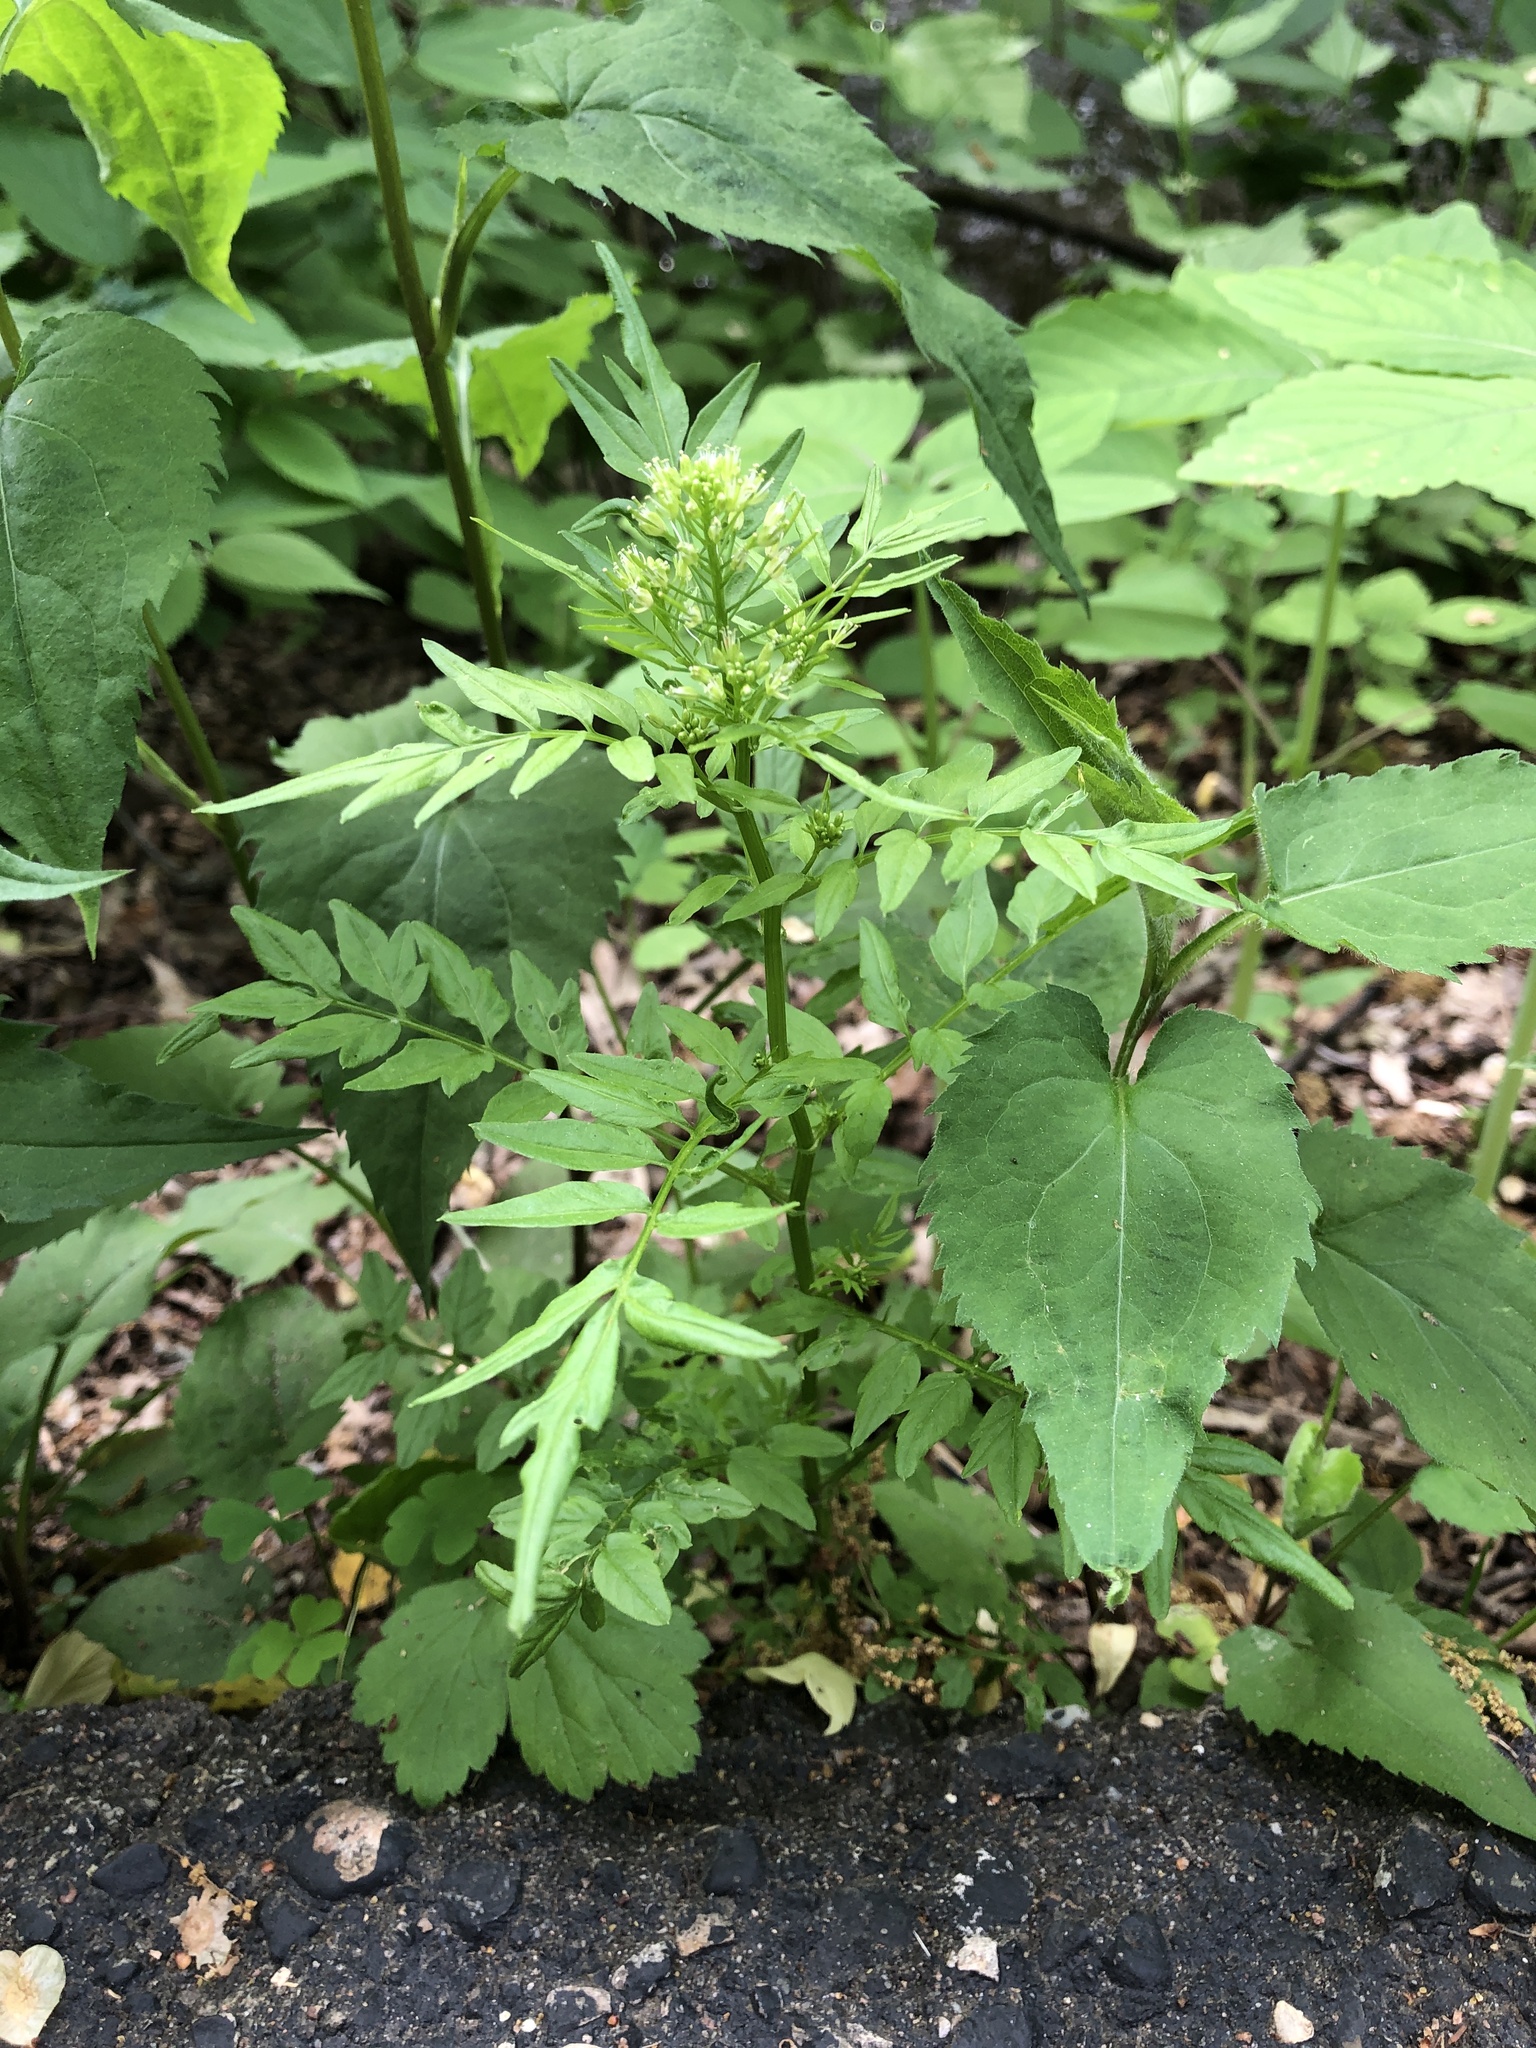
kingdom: Plantae
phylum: Tracheophyta
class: Magnoliopsida
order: Brassicales
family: Brassicaceae
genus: Cardamine
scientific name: Cardamine impatiens
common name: Narrow-leaved bitter-cress
